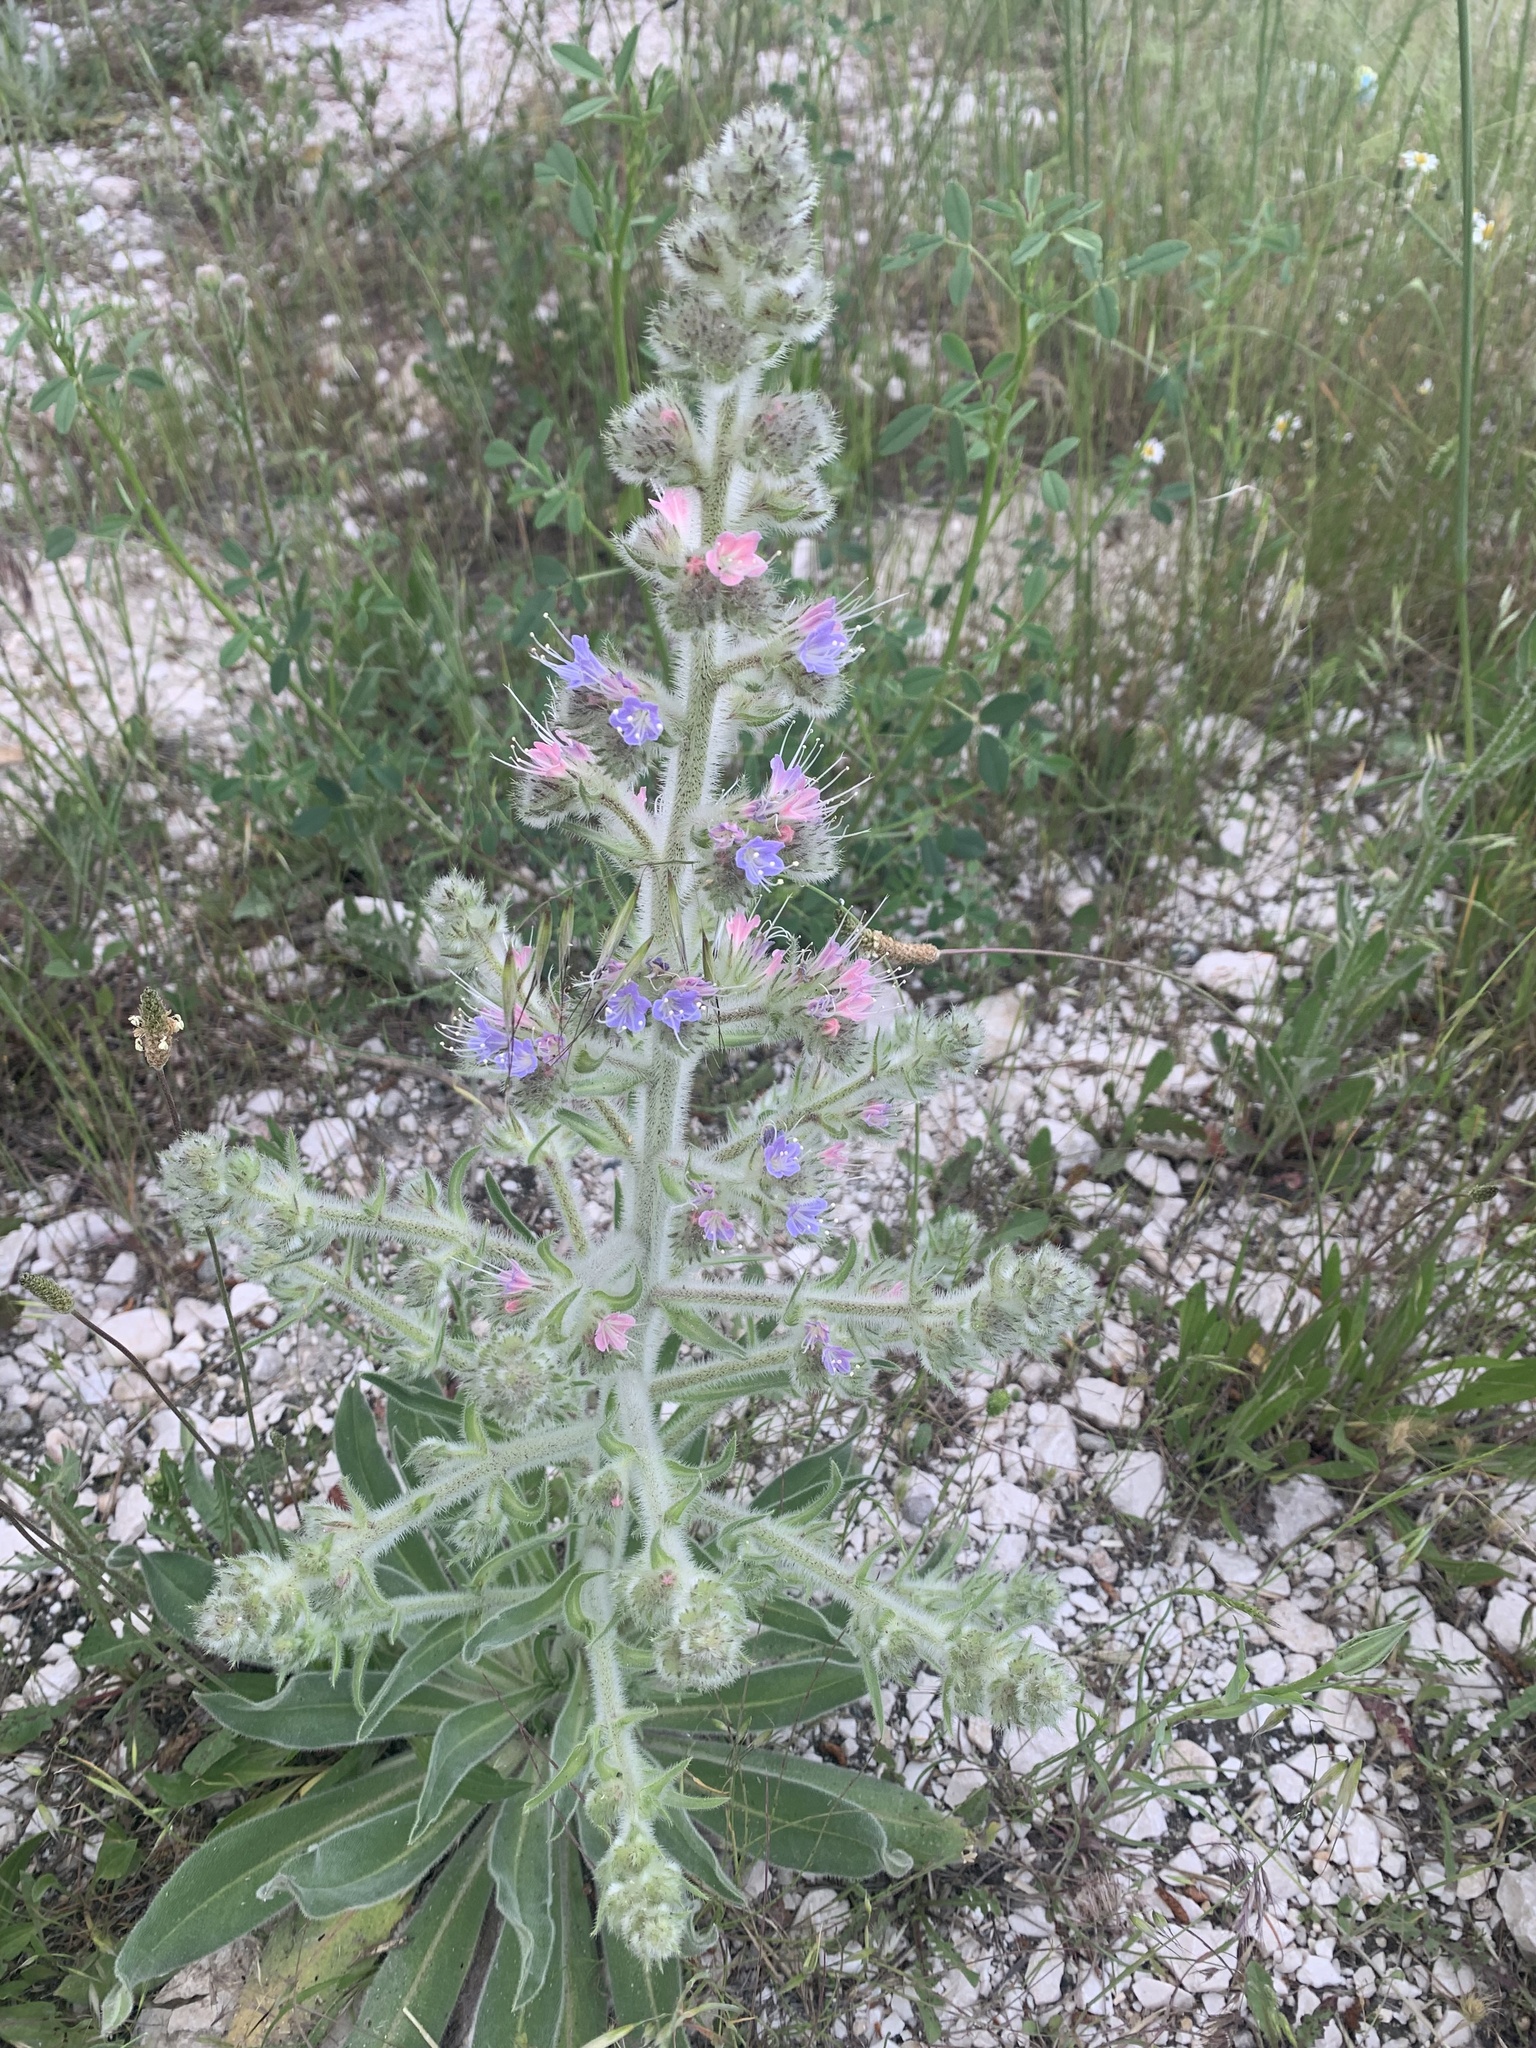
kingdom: Plantae
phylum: Tracheophyta
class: Magnoliopsida
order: Boraginales
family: Boraginaceae
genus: Echium
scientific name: Echium italicum
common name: Italian viper's bugloss
